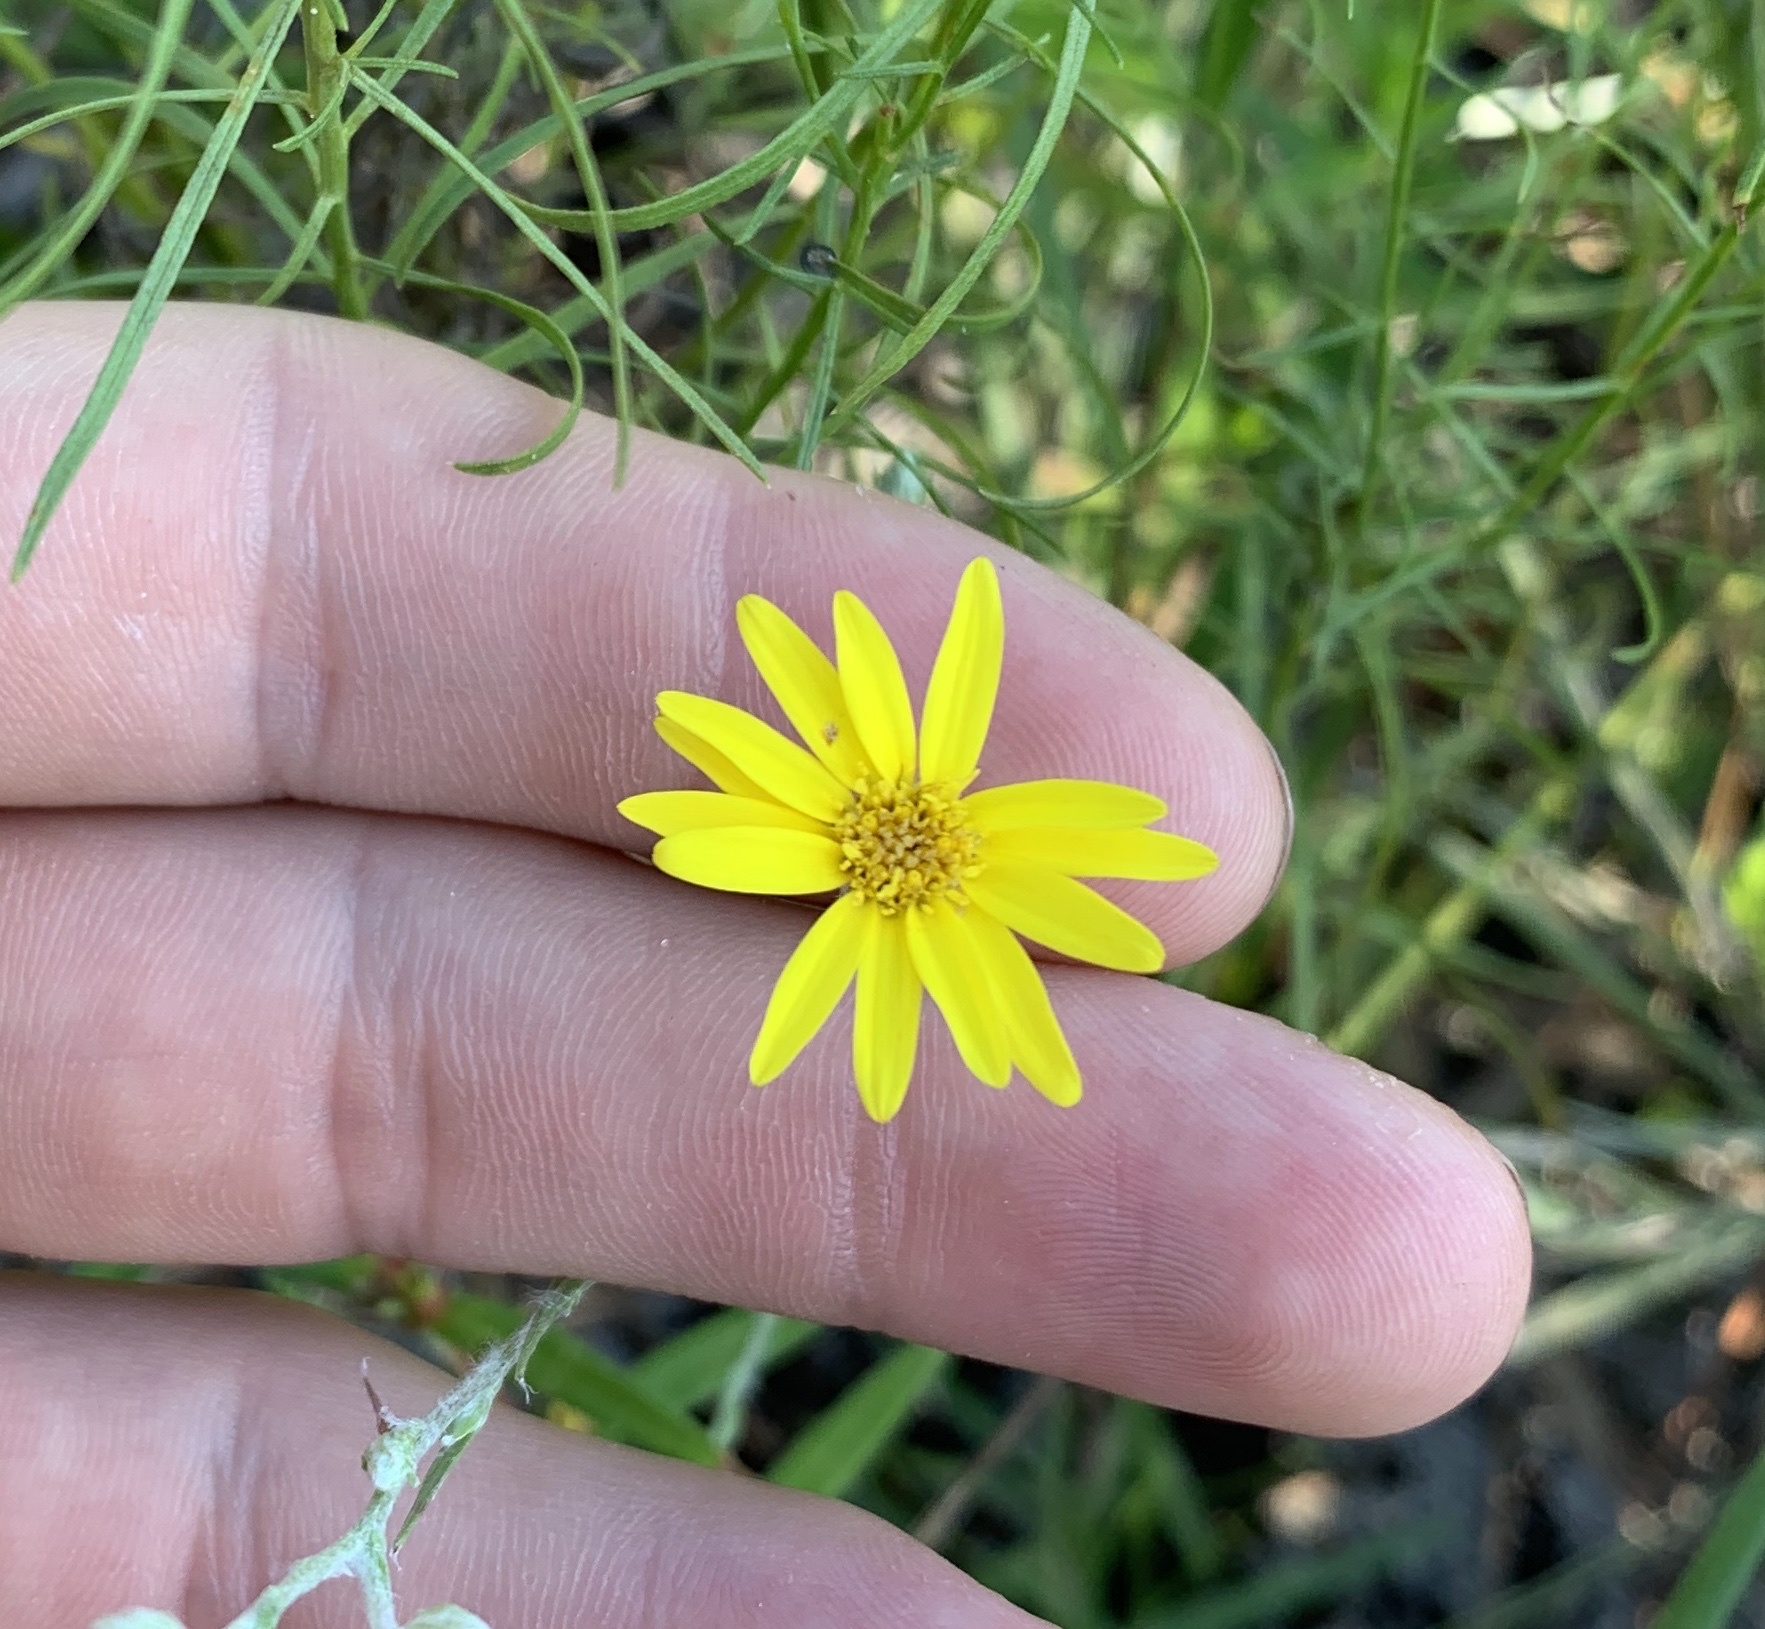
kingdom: Plantae
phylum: Tracheophyta
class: Magnoliopsida
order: Asterales
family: Asteraceae
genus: Pityopsis
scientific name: Pityopsis graminifolia
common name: Grass-leaf golden-aster
